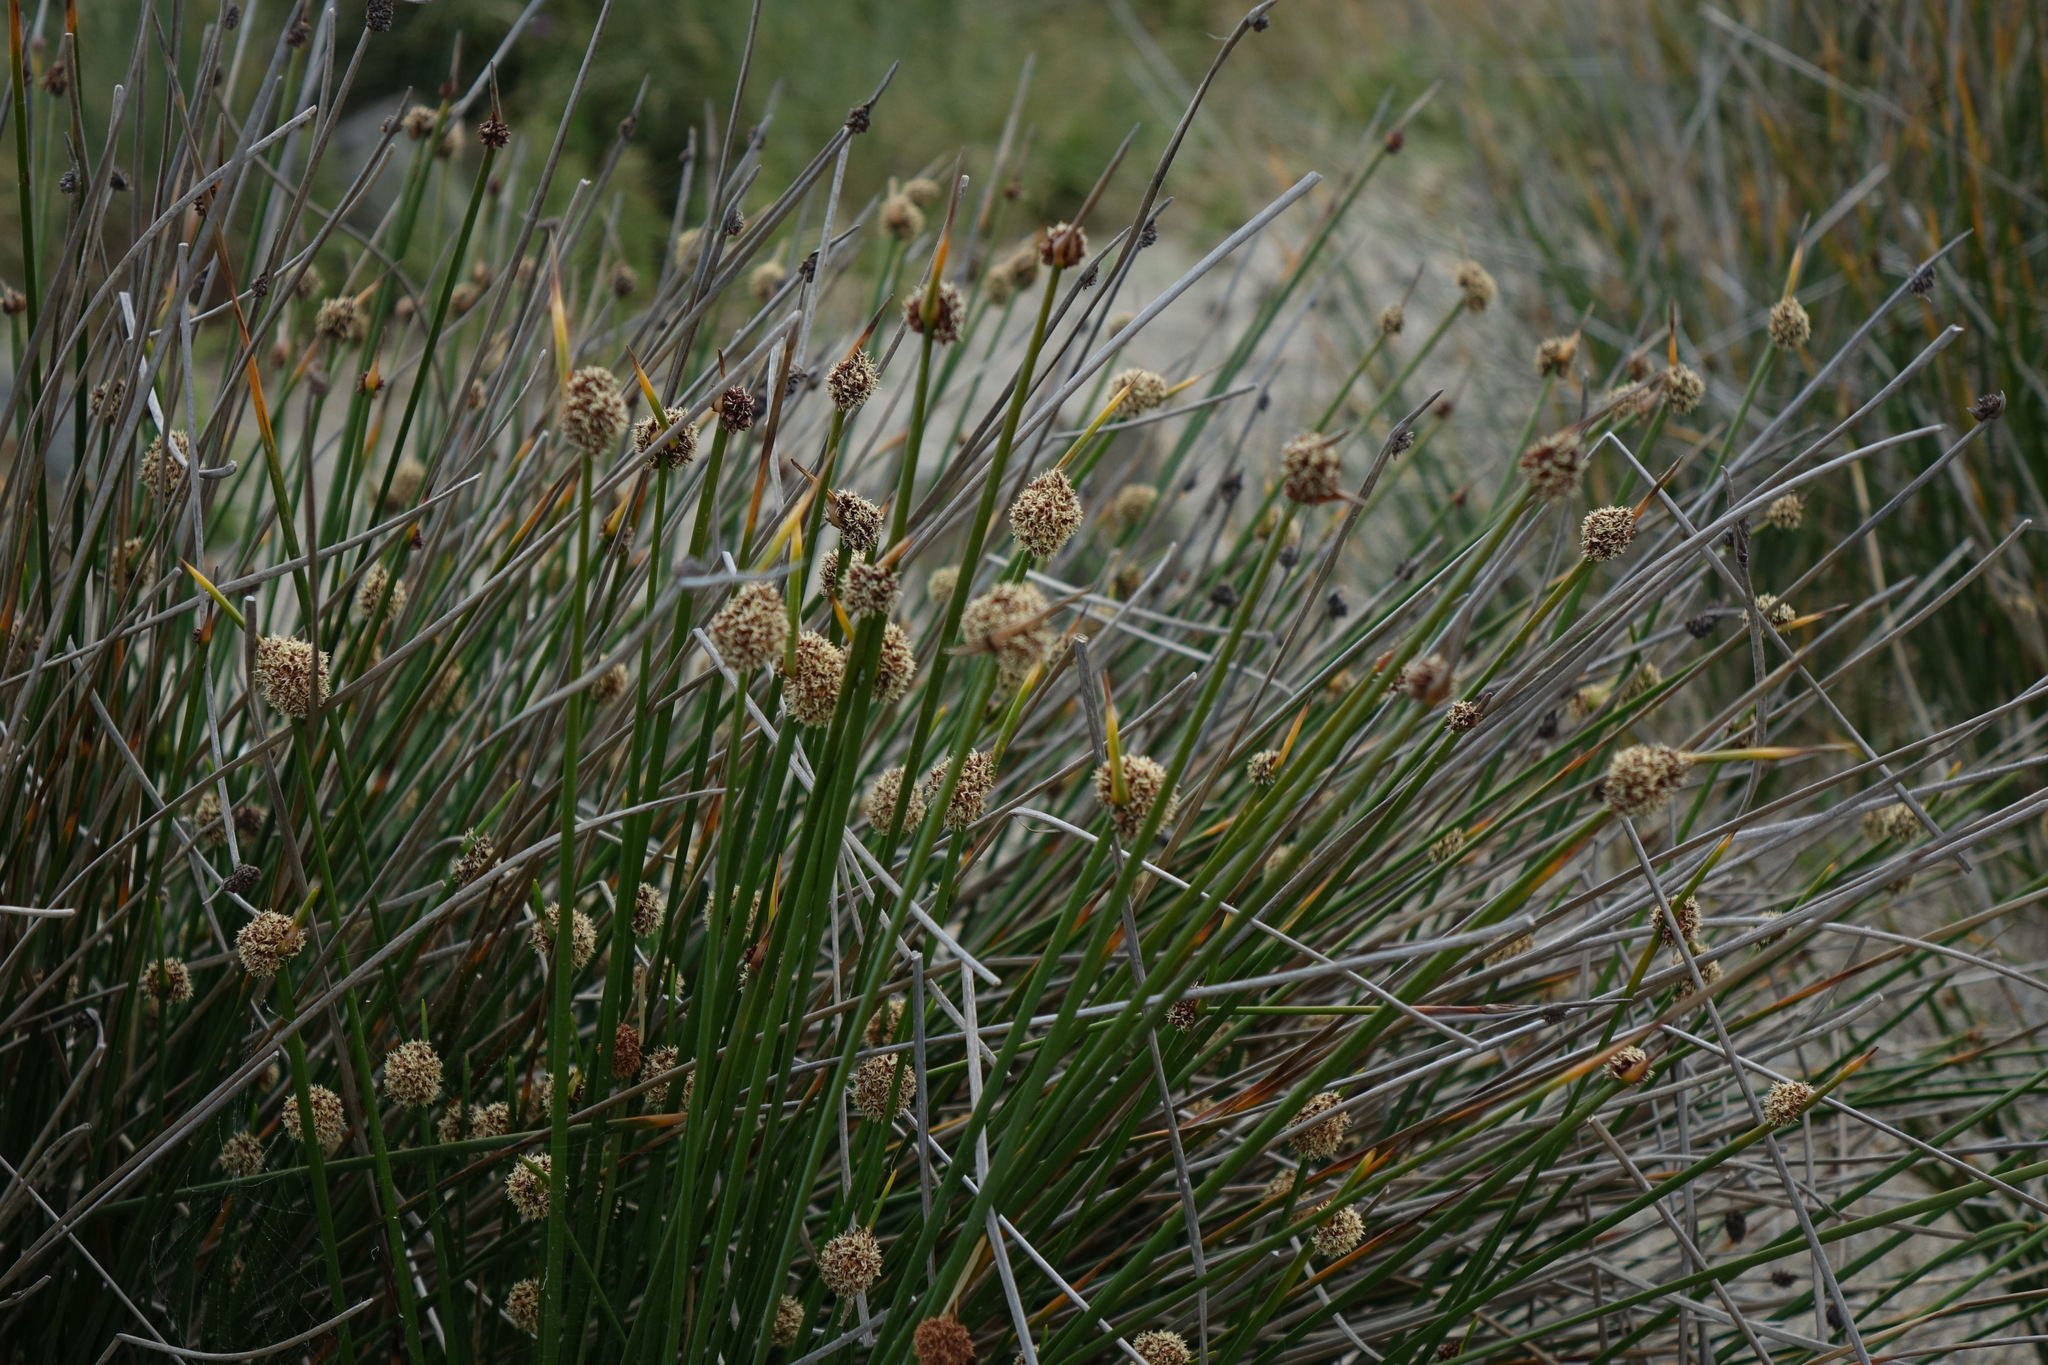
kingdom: Plantae
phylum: Tracheophyta
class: Liliopsida
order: Poales
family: Cyperaceae
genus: Ficinia
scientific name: Ficinia nodosa
